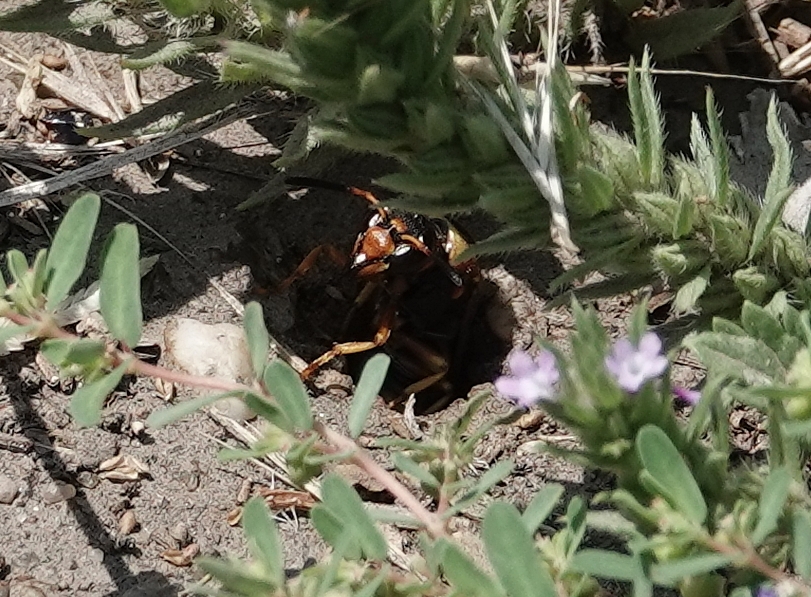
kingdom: Animalia
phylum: Arthropoda
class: Insecta
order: Hymenoptera
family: Eumenidae
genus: Euodynerus
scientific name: Euodynerus crypticus
